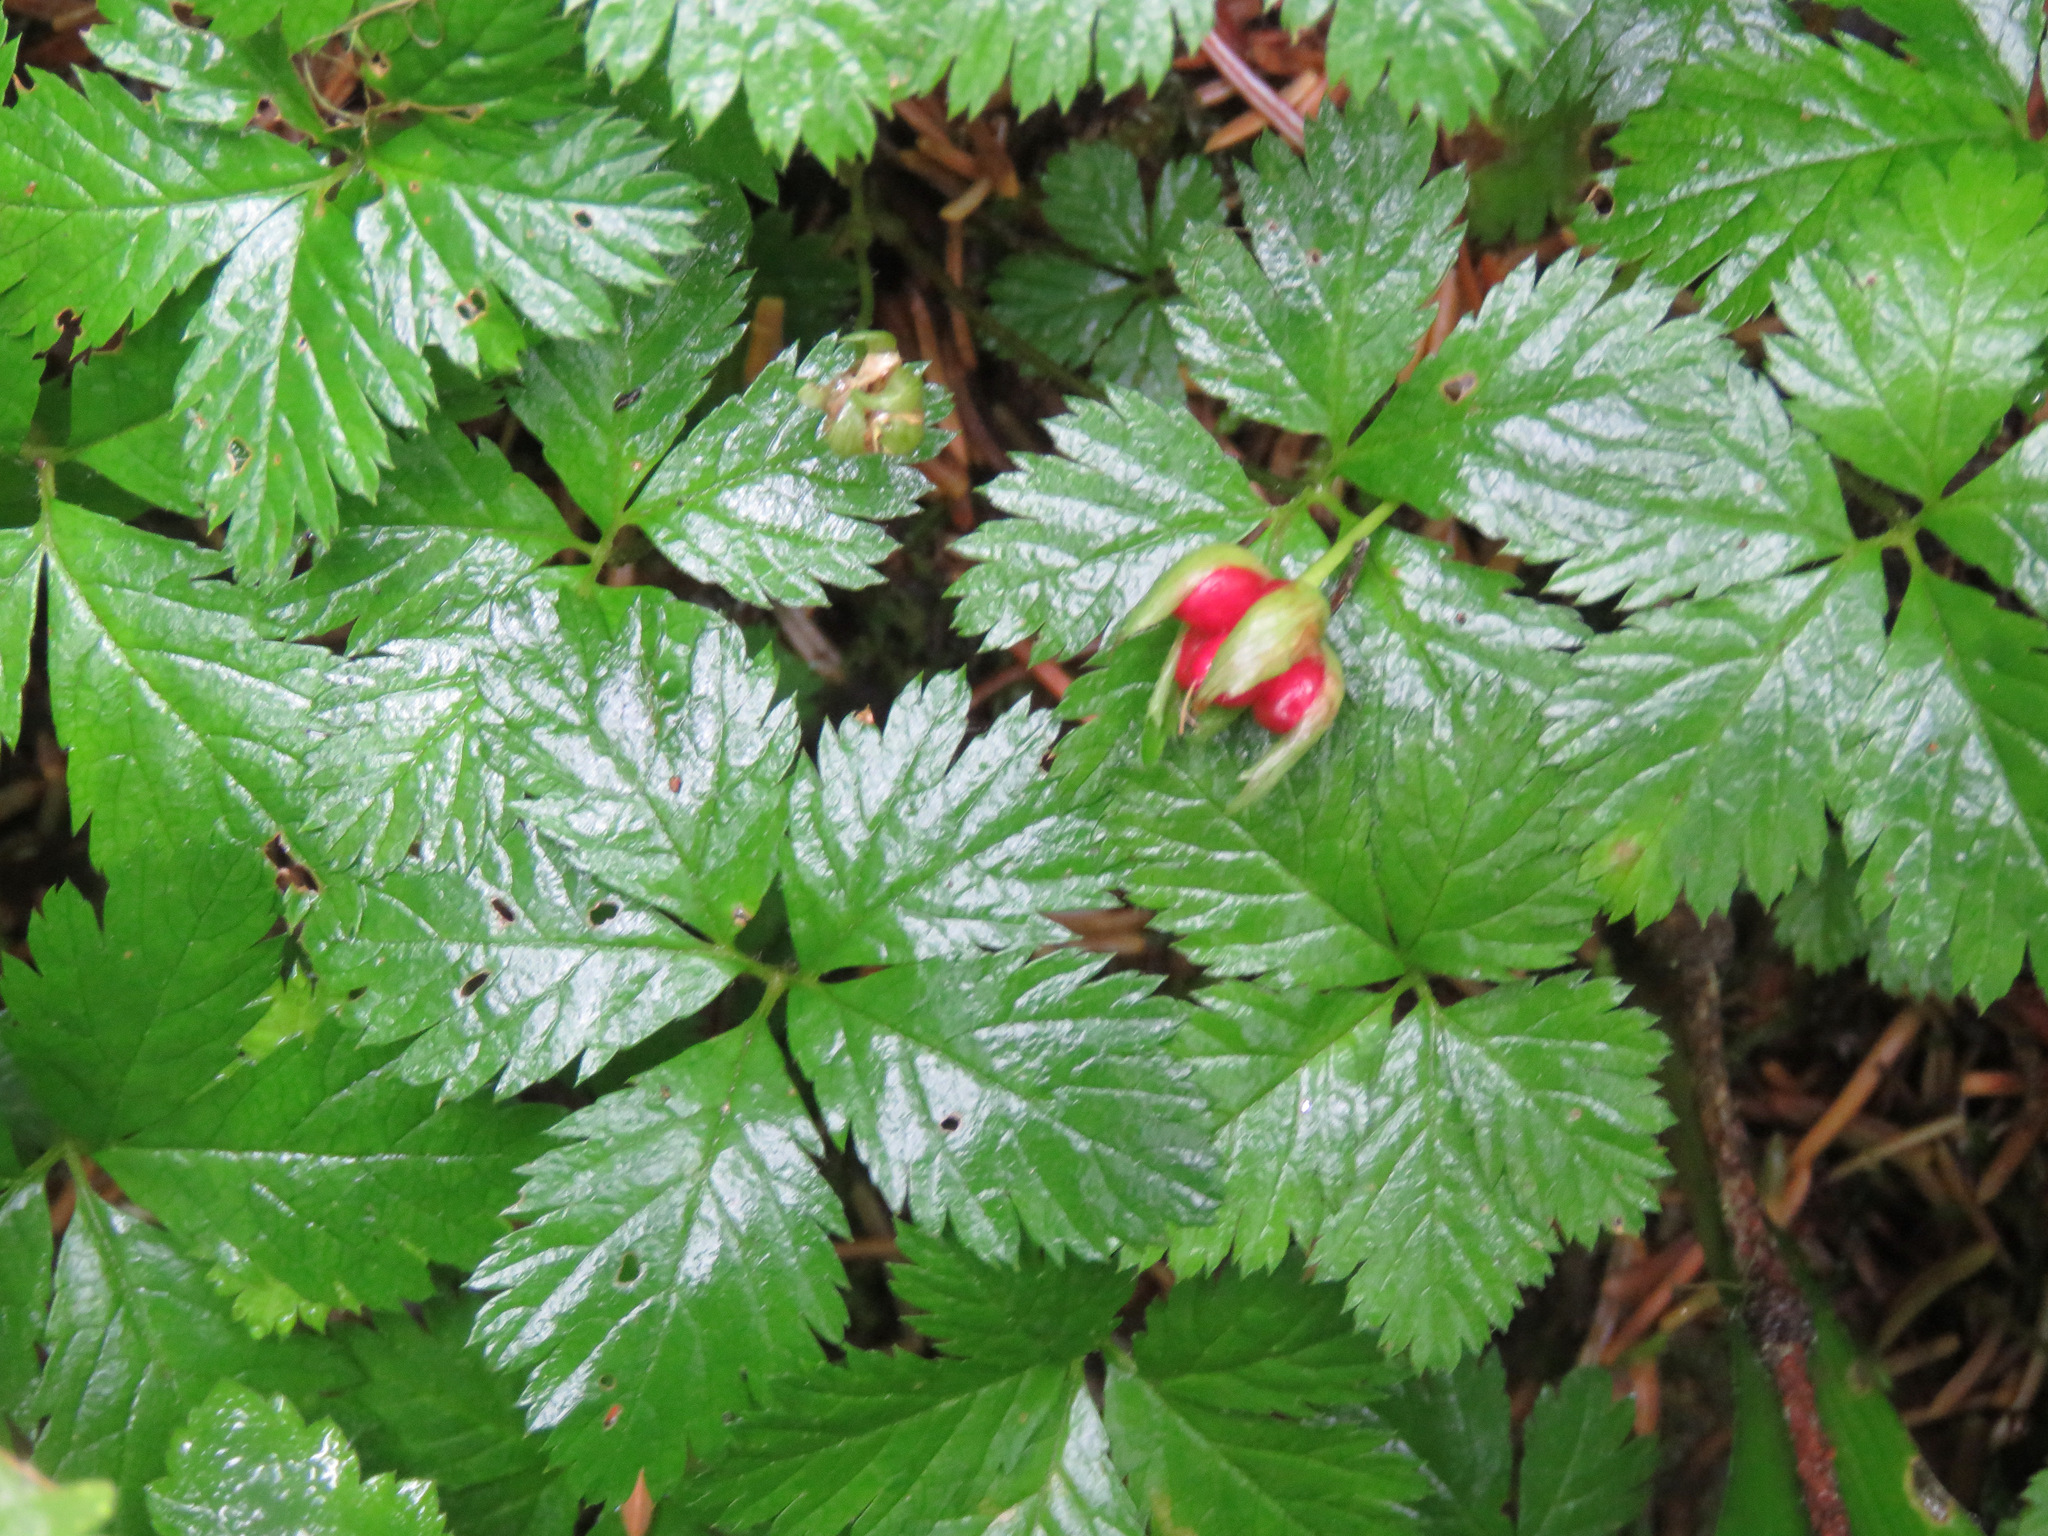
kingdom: Plantae
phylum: Tracheophyta
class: Magnoliopsida
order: Rosales
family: Rosaceae
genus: Rubus
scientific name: Rubus pedatus
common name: Creeping raspberry
